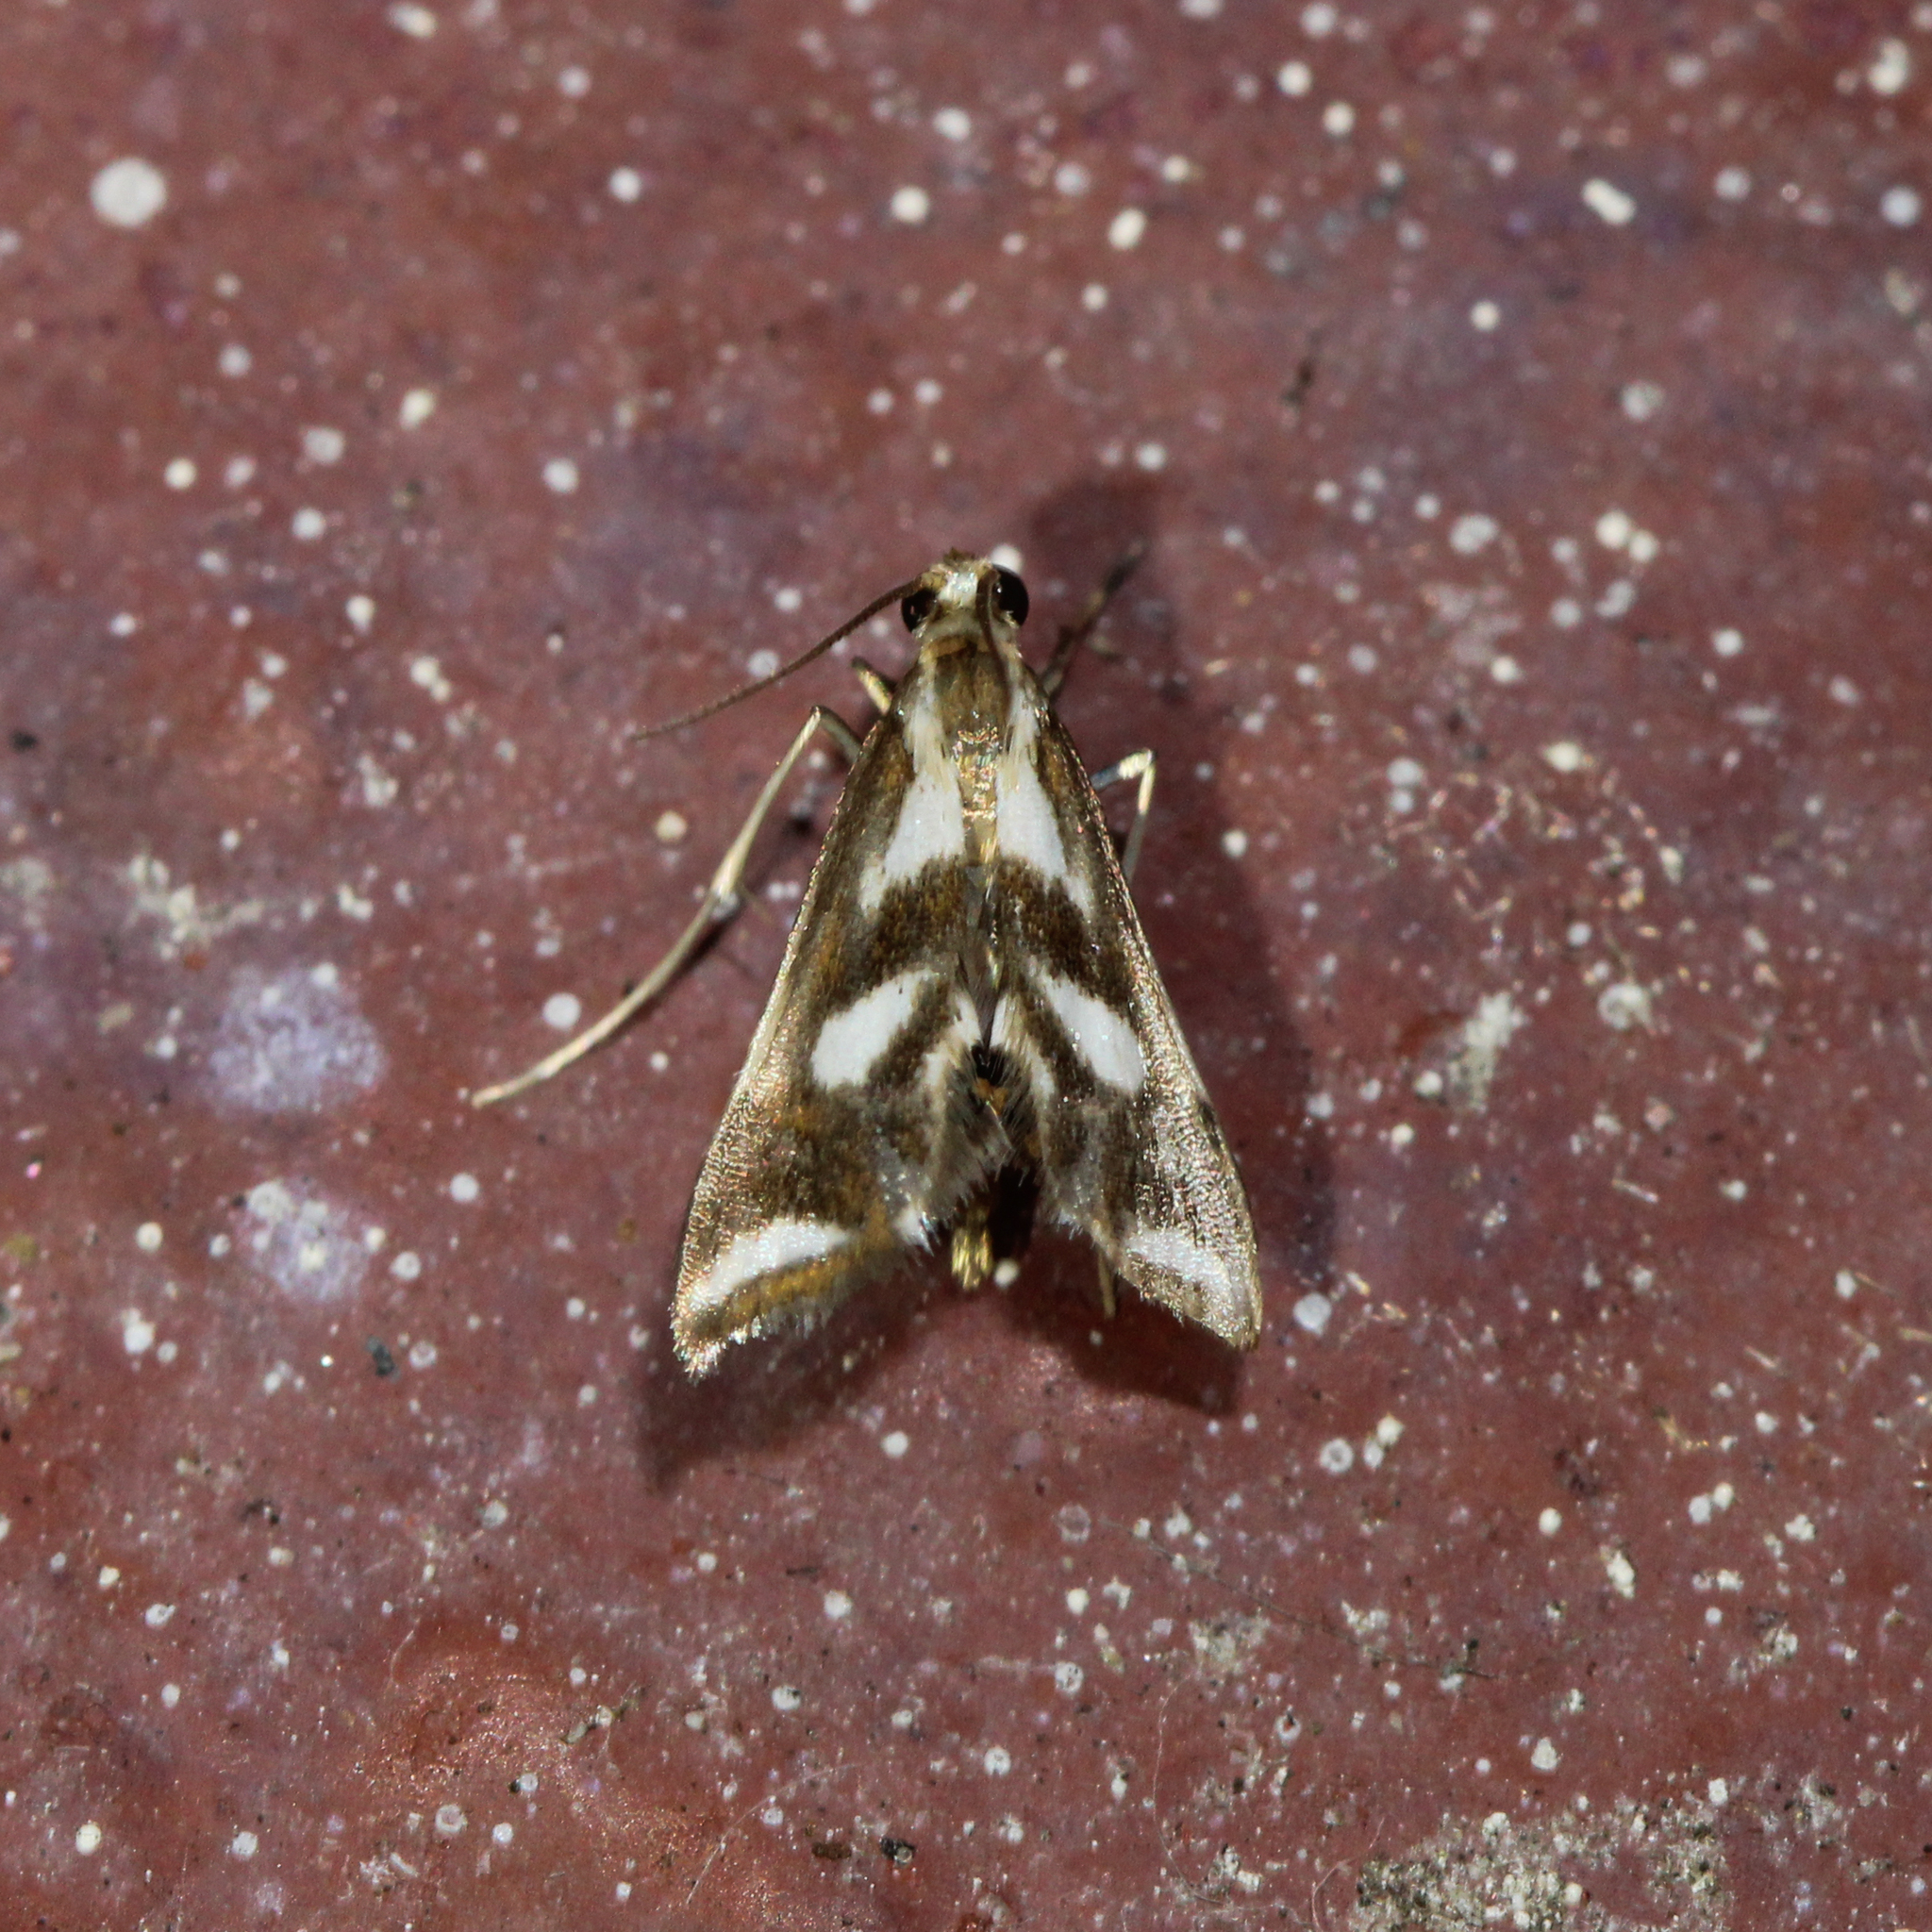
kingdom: Animalia
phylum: Arthropoda
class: Insecta
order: Lepidoptera
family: Crambidae
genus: Chrysendeton
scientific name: Chrysendeton imitabilis
